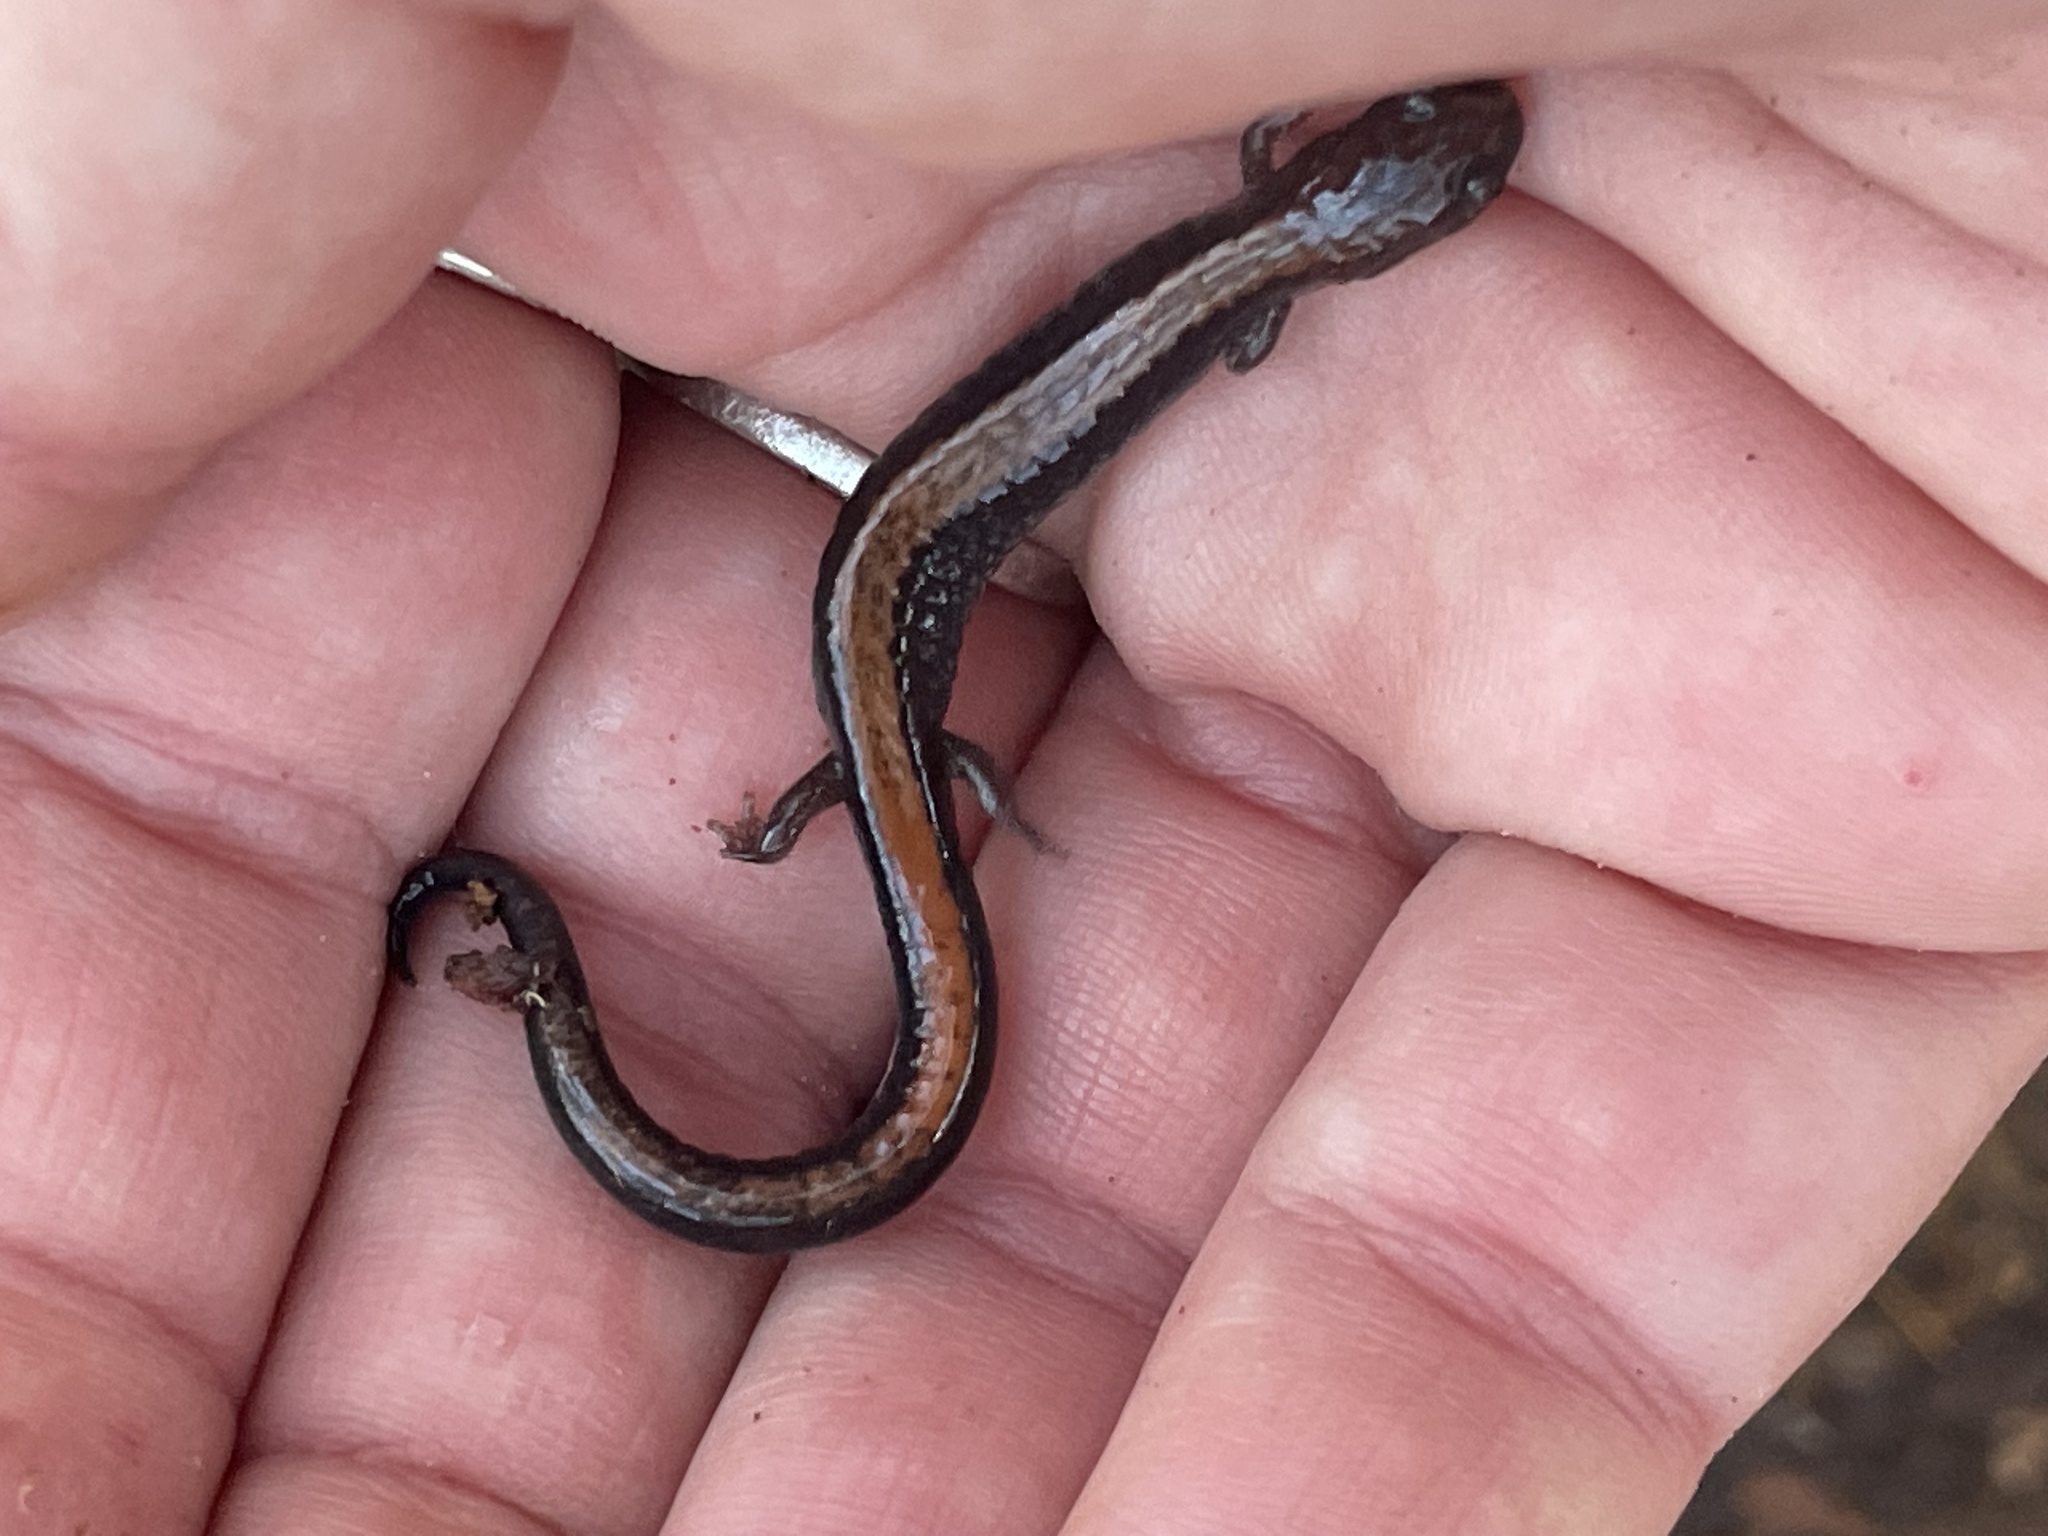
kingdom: Animalia
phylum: Chordata
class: Amphibia
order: Caudata
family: Plethodontidae
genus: Plethodon
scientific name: Plethodon cinereus
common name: Redback salamander
